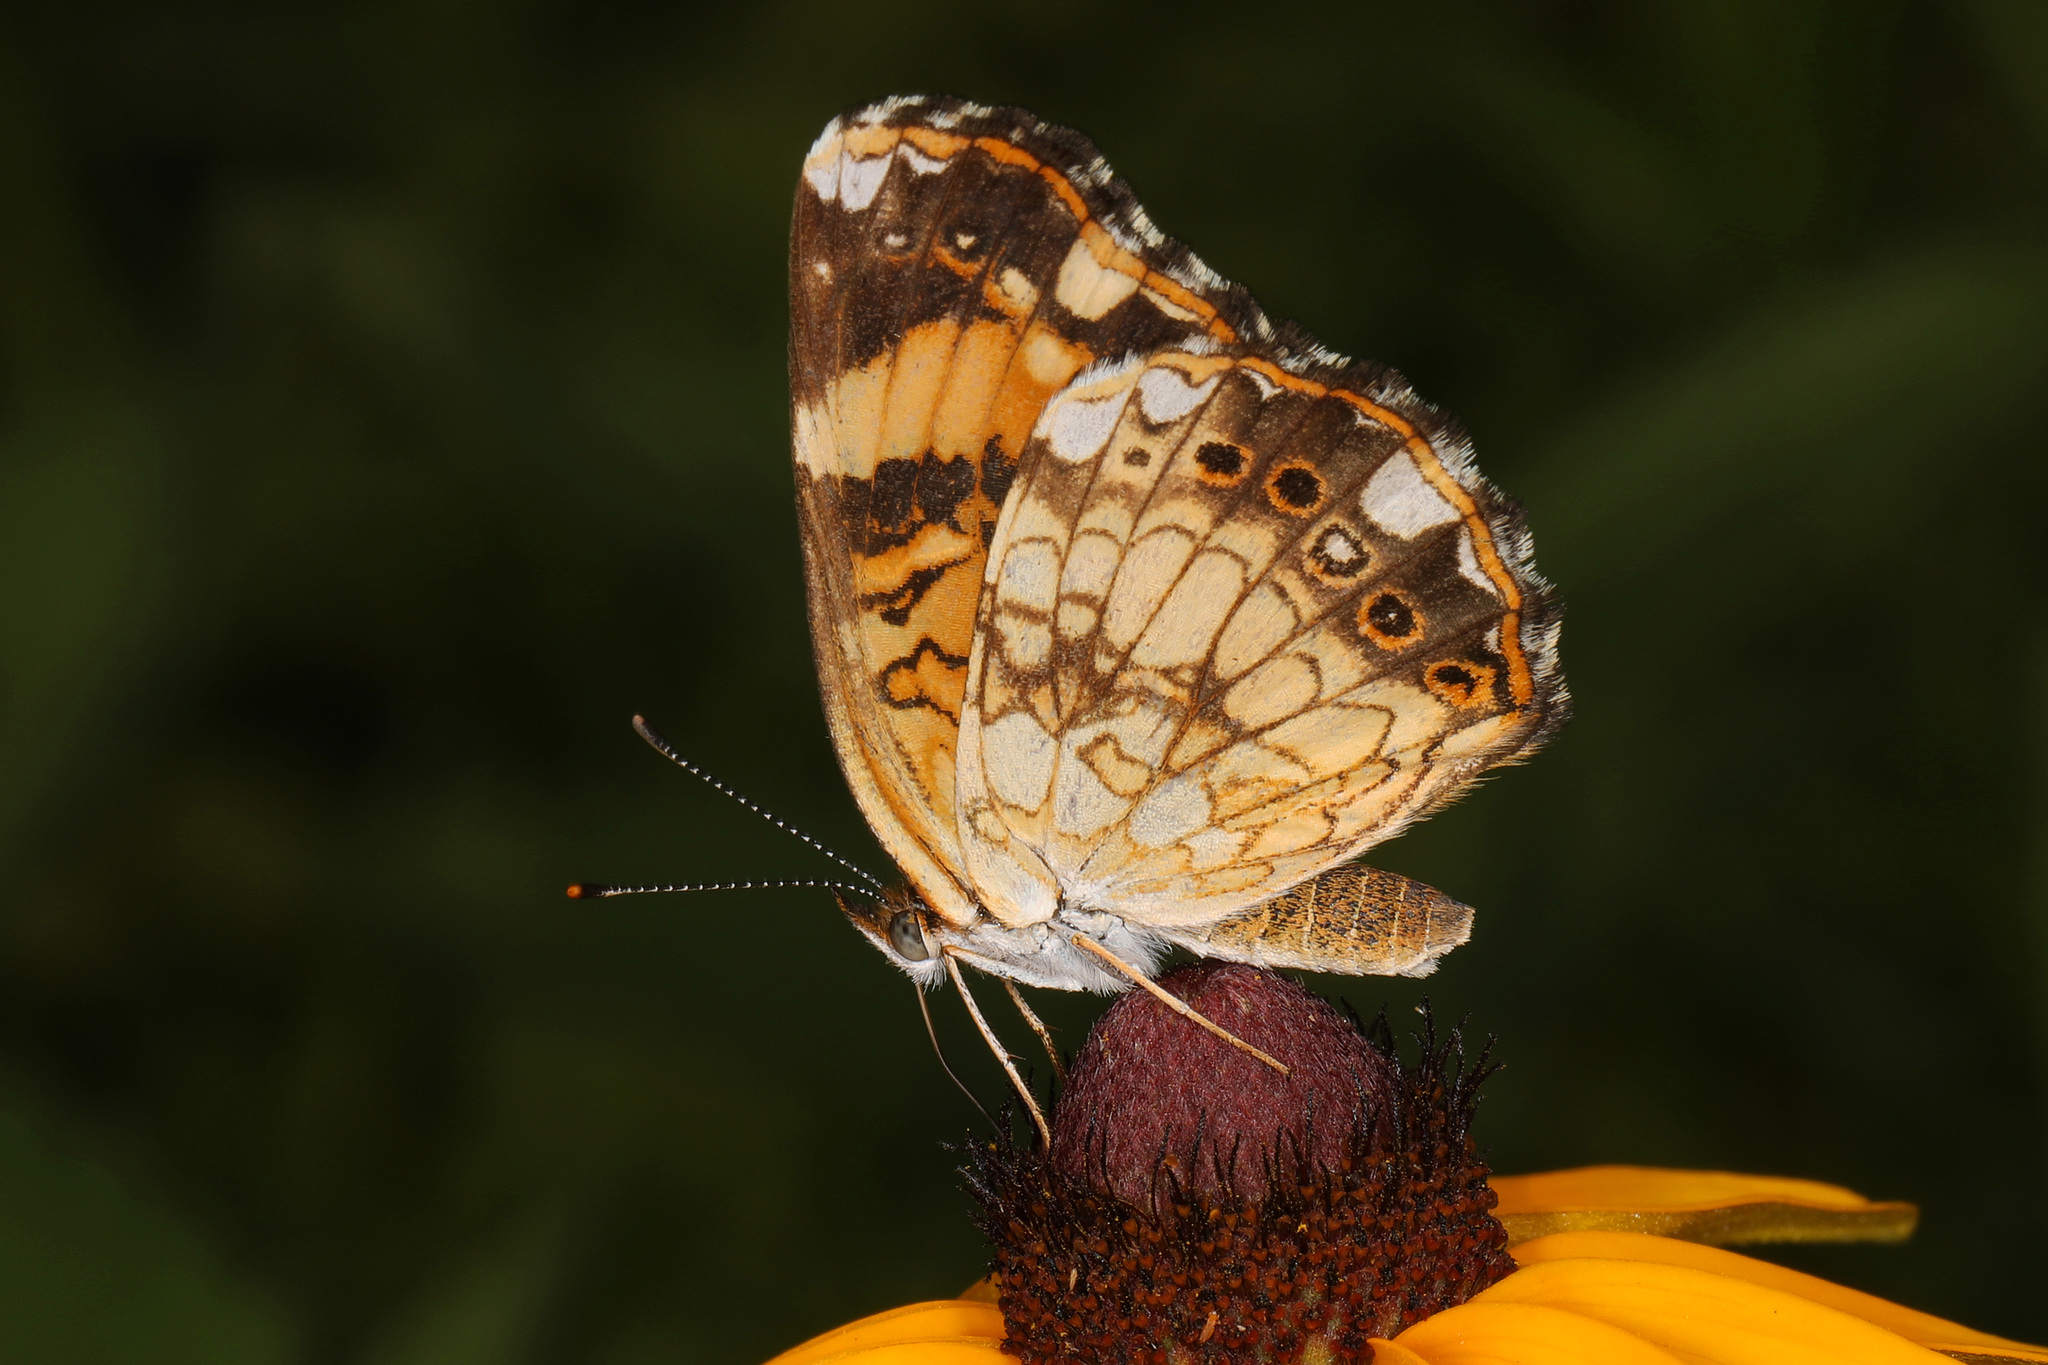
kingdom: Animalia
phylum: Arthropoda
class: Insecta
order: Lepidoptera
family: Nymphalidae
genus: Chlosyne
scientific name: Chlosyne nycteis
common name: Silvery checkerspot
